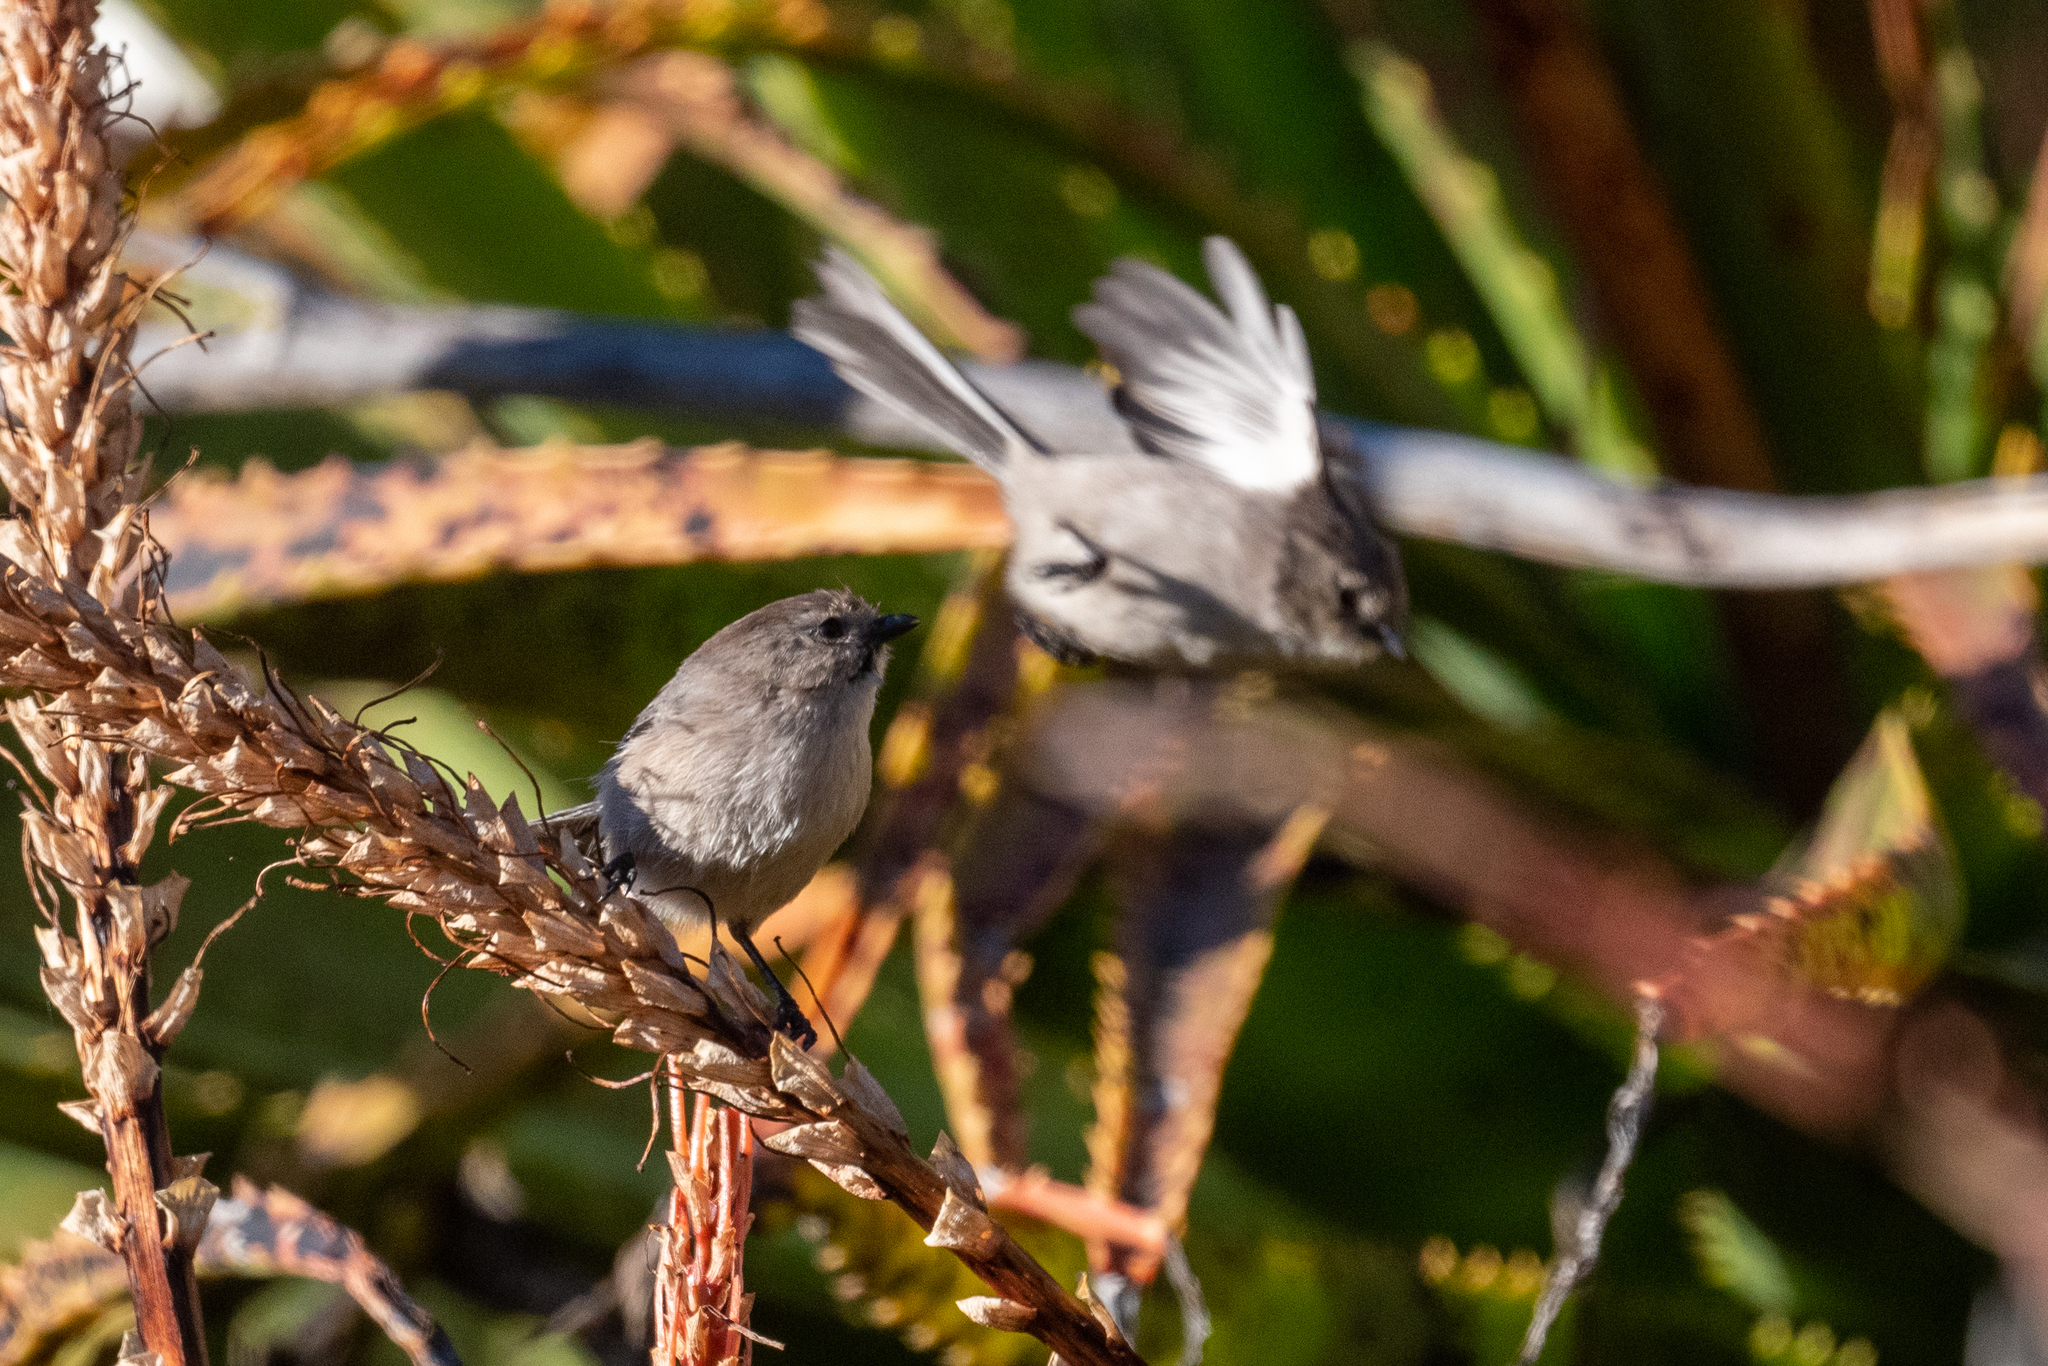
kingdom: Animalia
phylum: Chordata
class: Aves
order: Passeriformes
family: Aegithalidae
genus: Psaltriparus
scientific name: Psaltriparus minimus
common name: American bushtit
